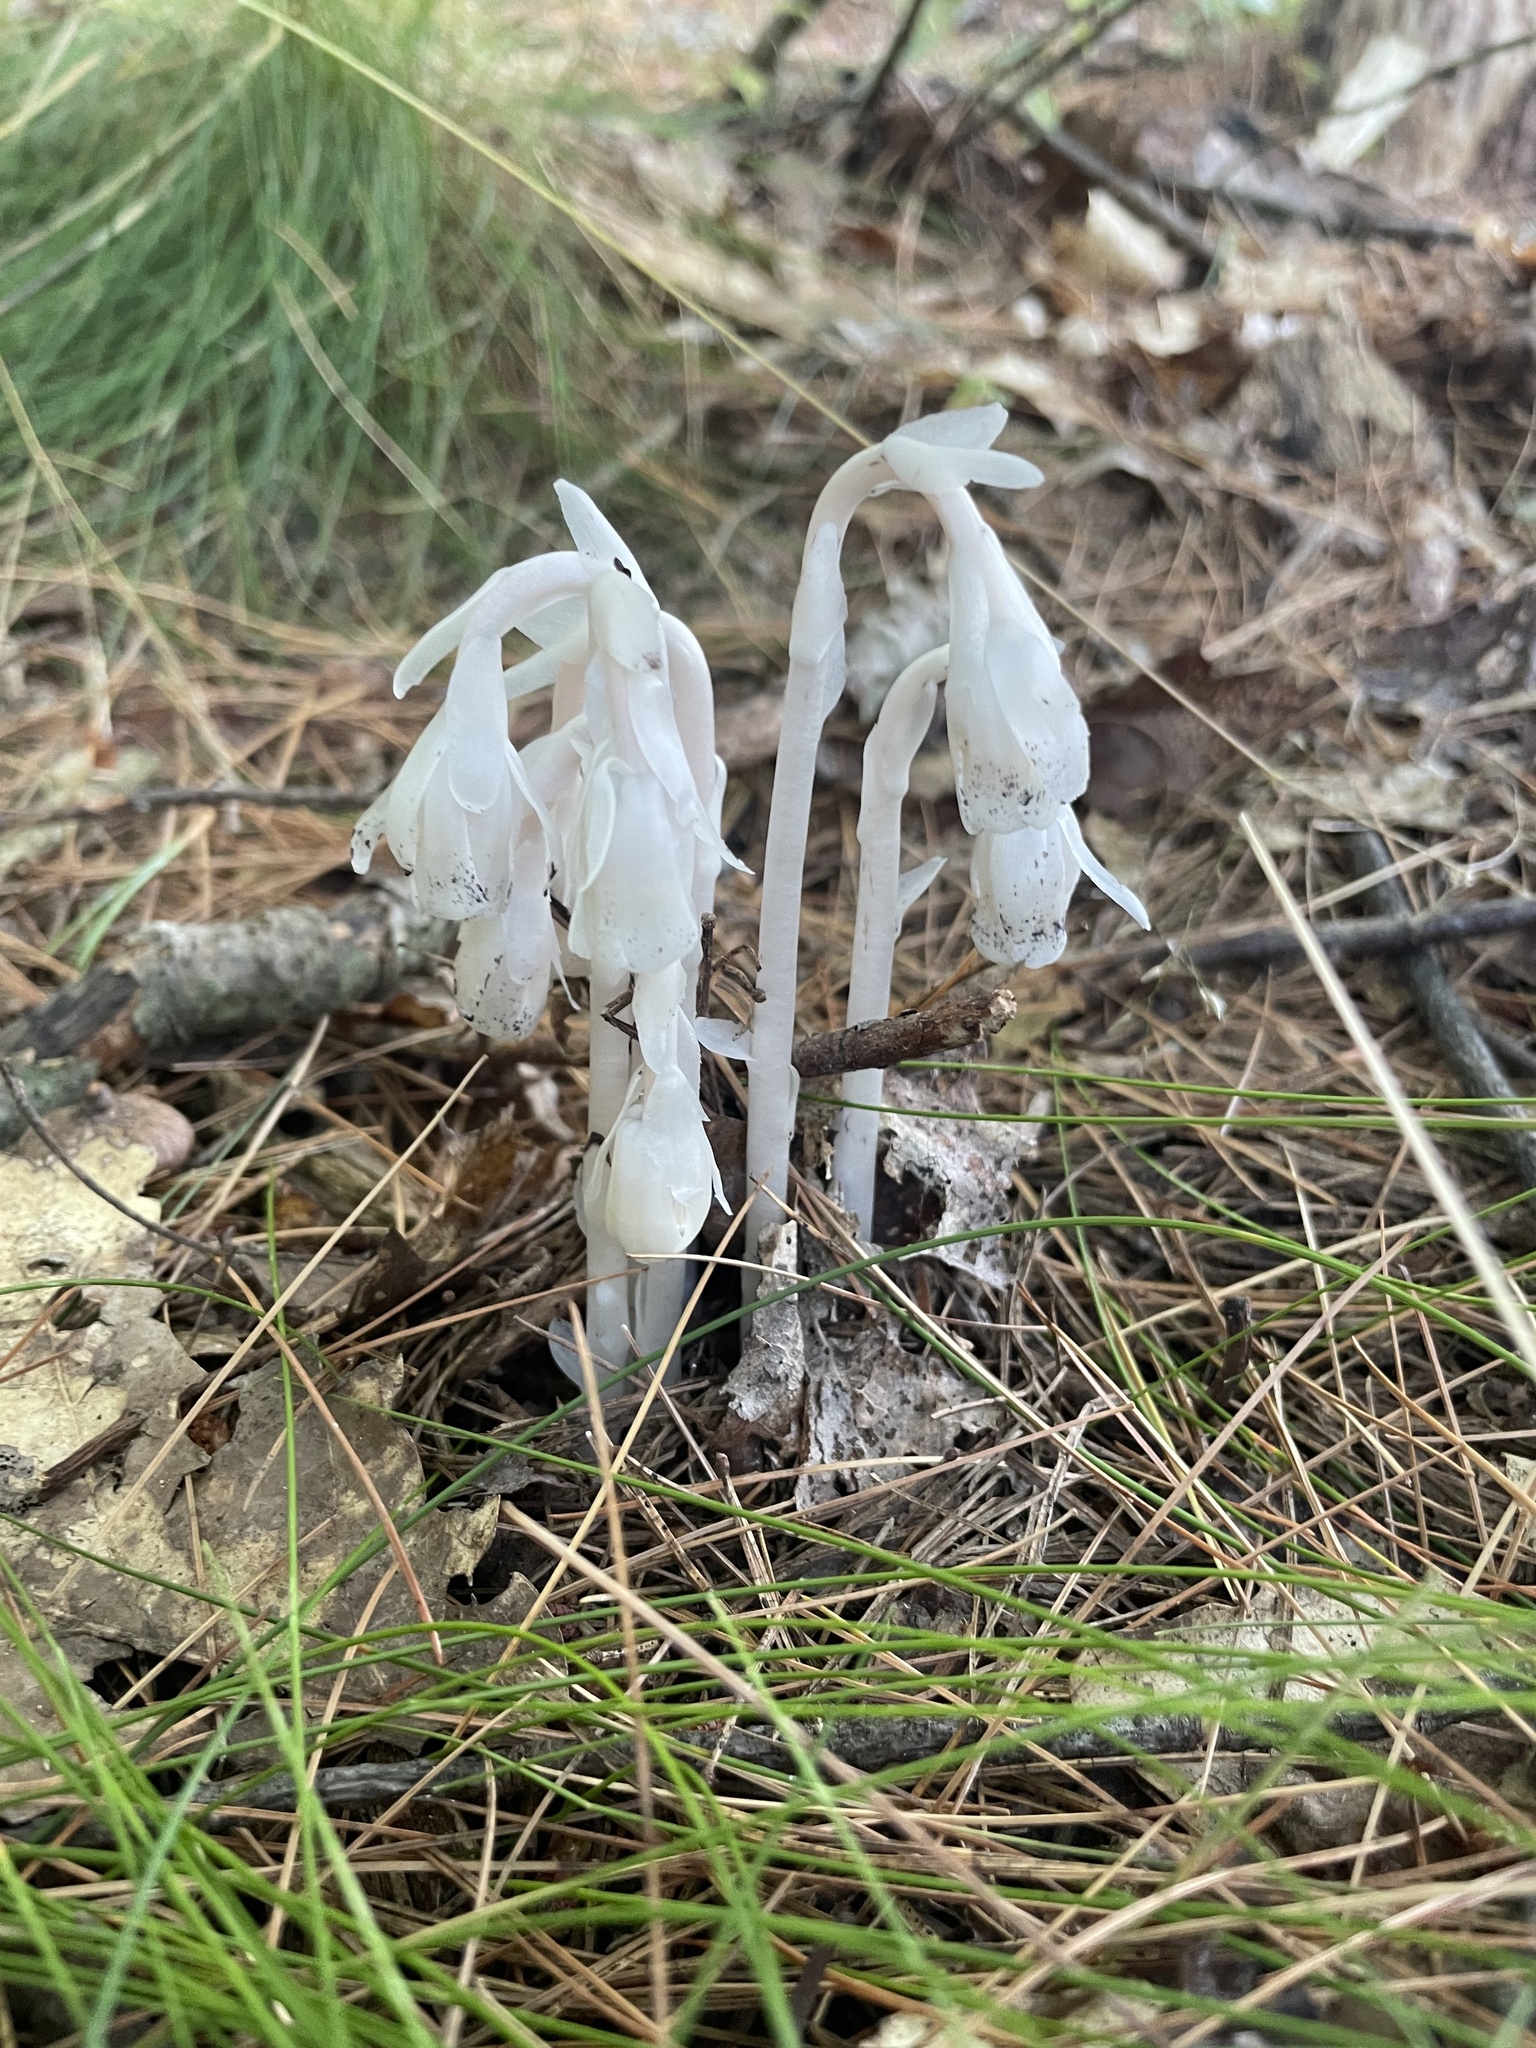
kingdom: Plantae
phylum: Tracheophyta
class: Magnoliopsida
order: Ericales
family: Ericaceae
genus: Monotropa
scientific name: Monotropa uniflora
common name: Convulsion root
